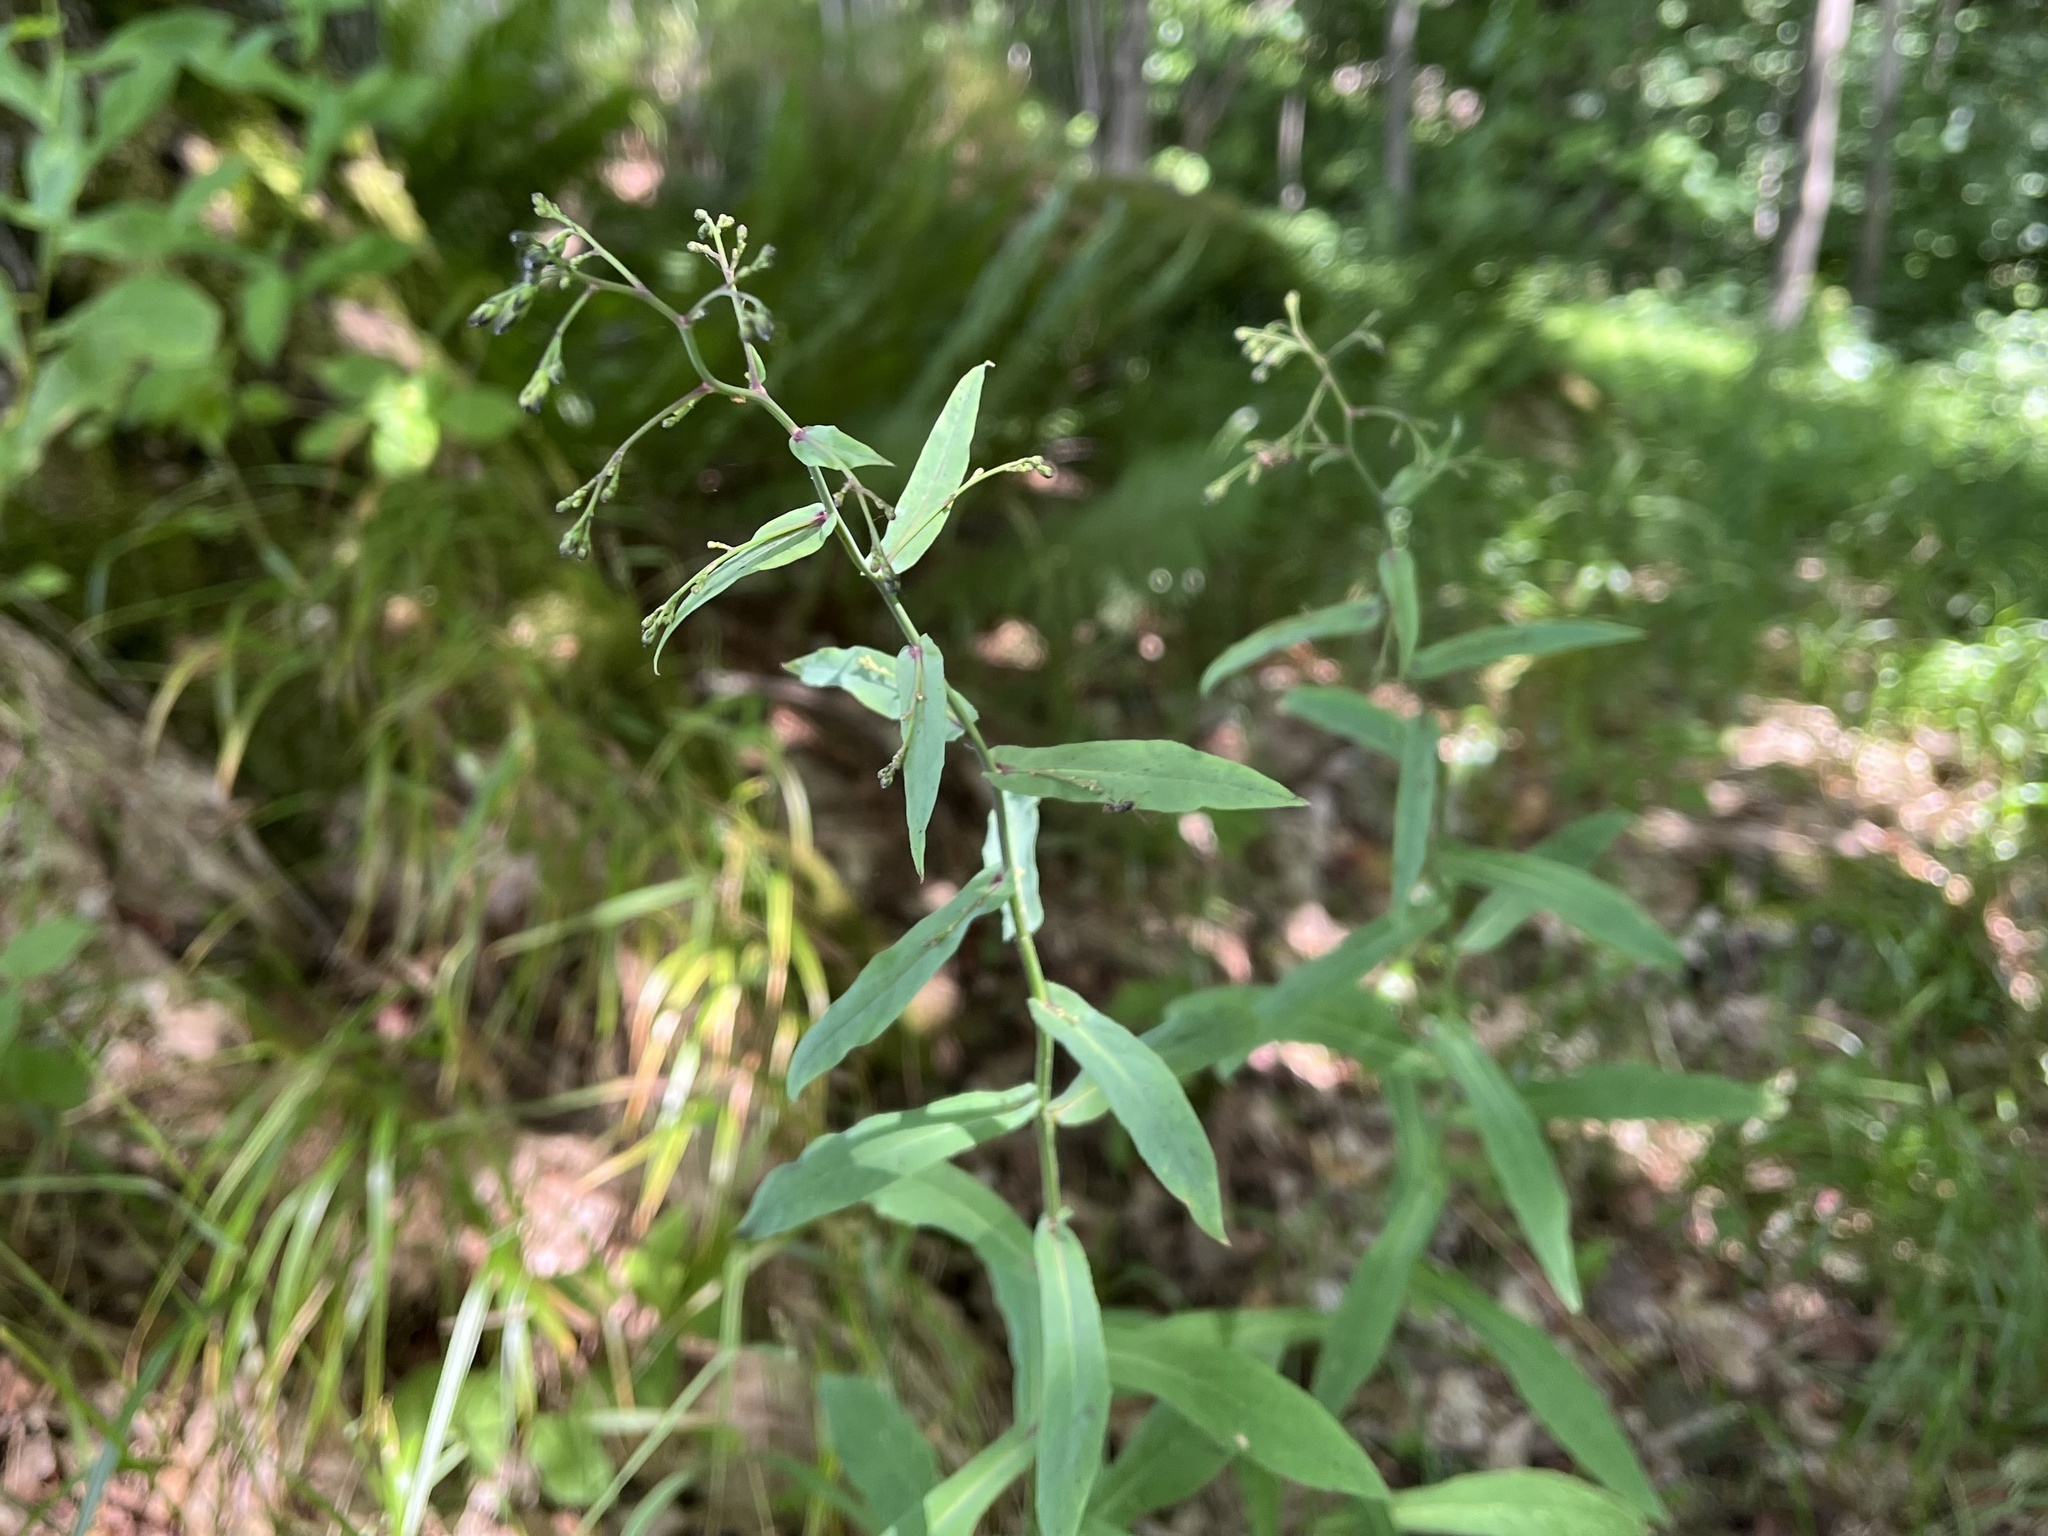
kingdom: Plantae
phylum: Tracheophyta
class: Magnoliopsida
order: Asterales
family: Asteraceae
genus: Prenanthes
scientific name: Prenanthes purpurea
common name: Purple lettuce
